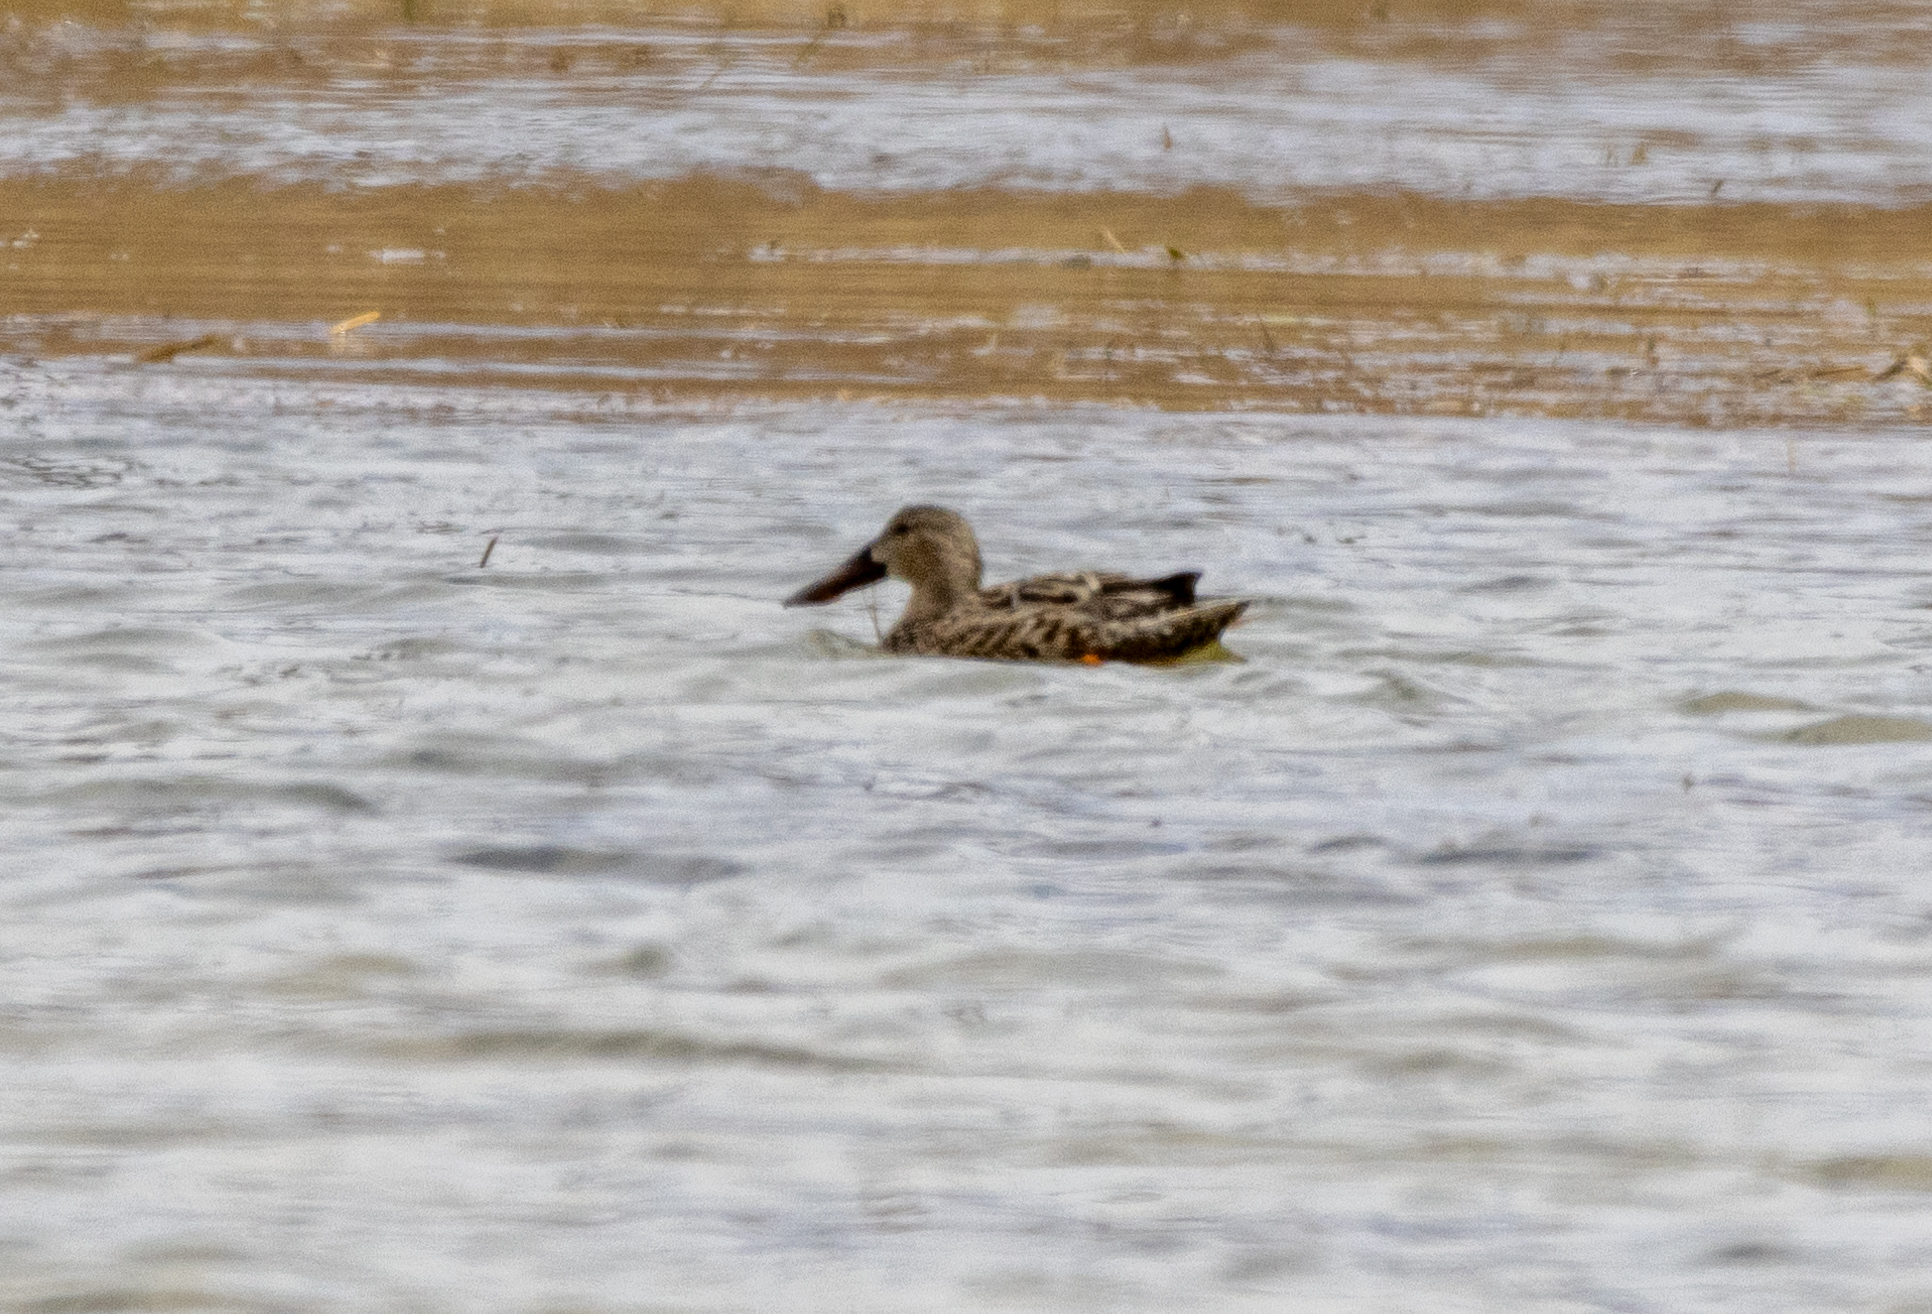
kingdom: Animalia
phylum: Chordata
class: Aves
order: Anseriformes
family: Anatidae
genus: Spatula
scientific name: Spatula clypeata
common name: Northern shoveler
